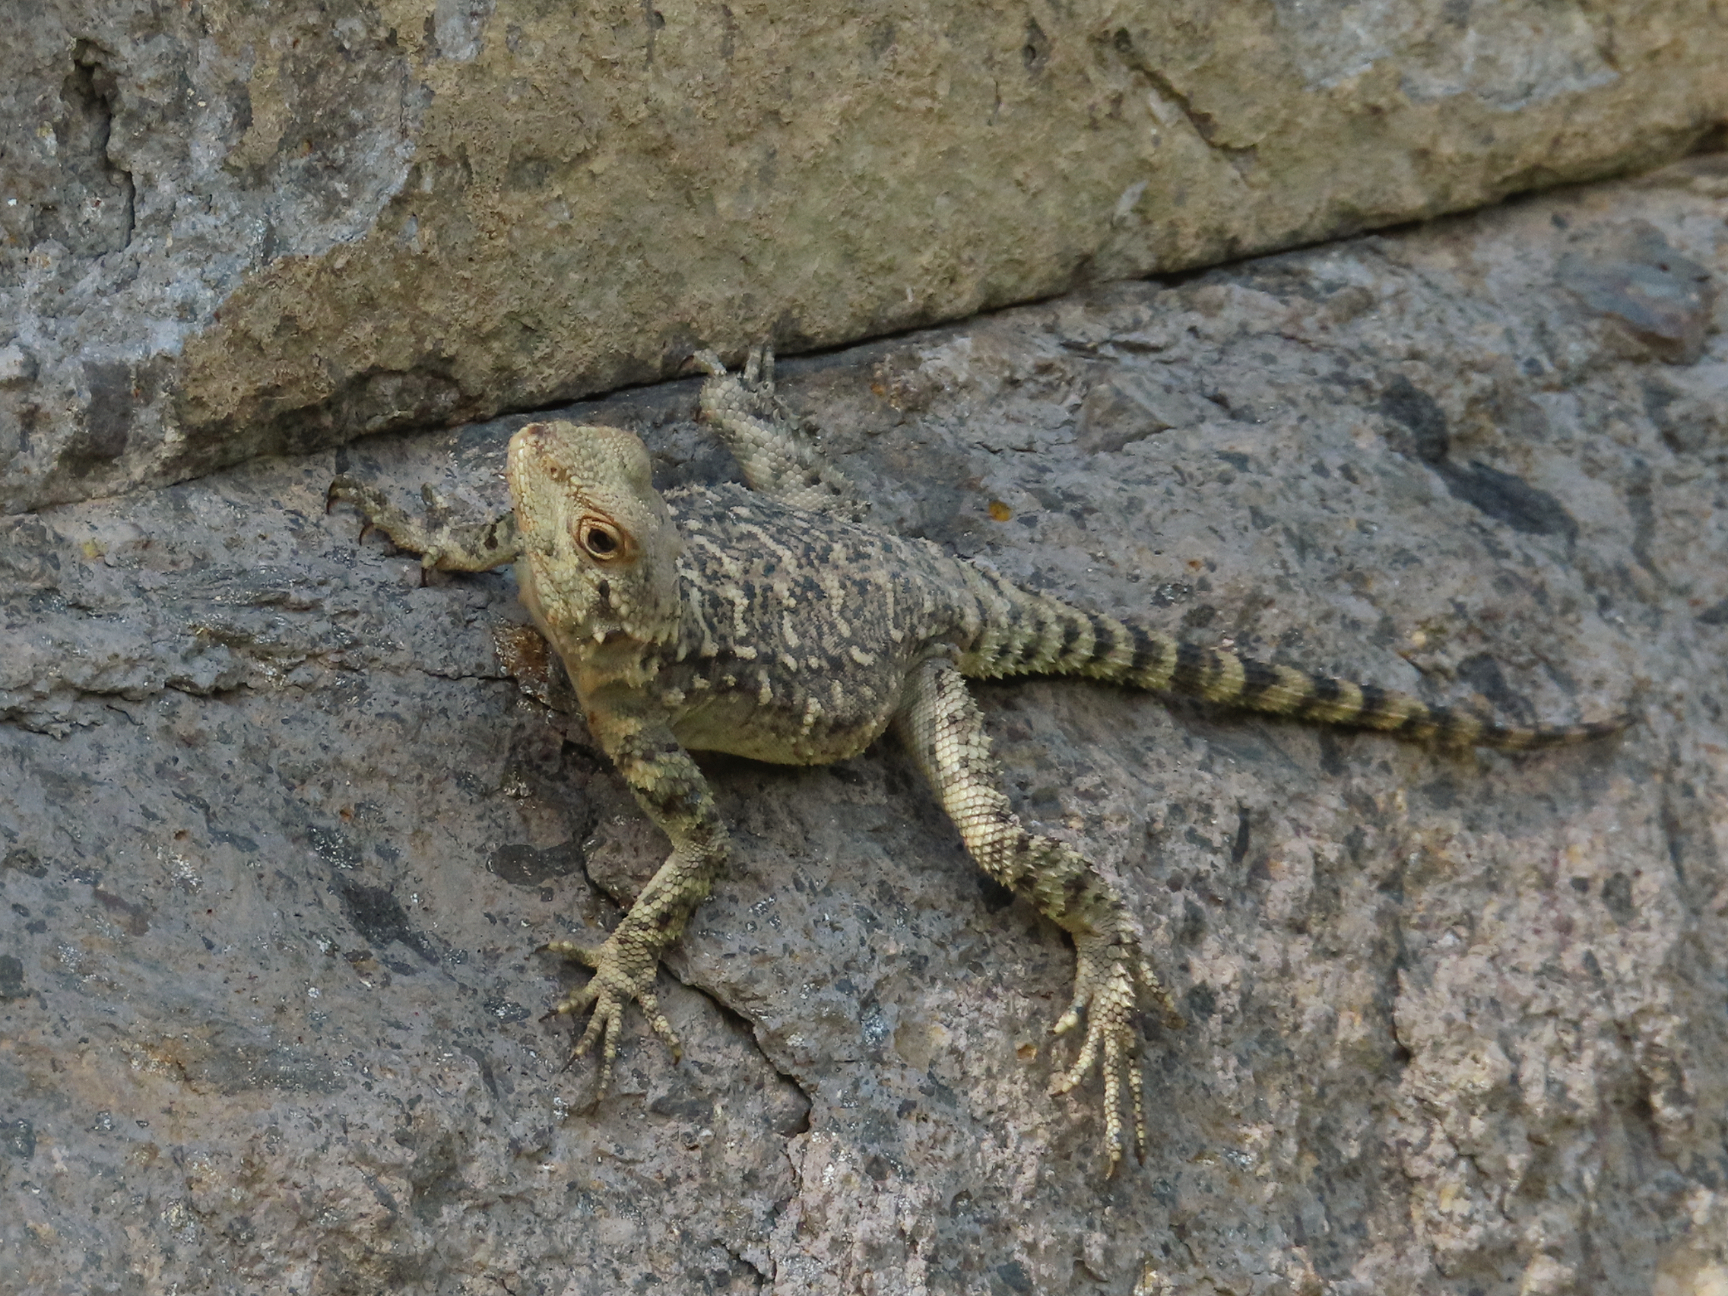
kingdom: Animalia
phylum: Chordata
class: Squamata
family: Agamidae
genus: Paralaudakia
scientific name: Paralaudakia caucasia
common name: Caucasian agama
